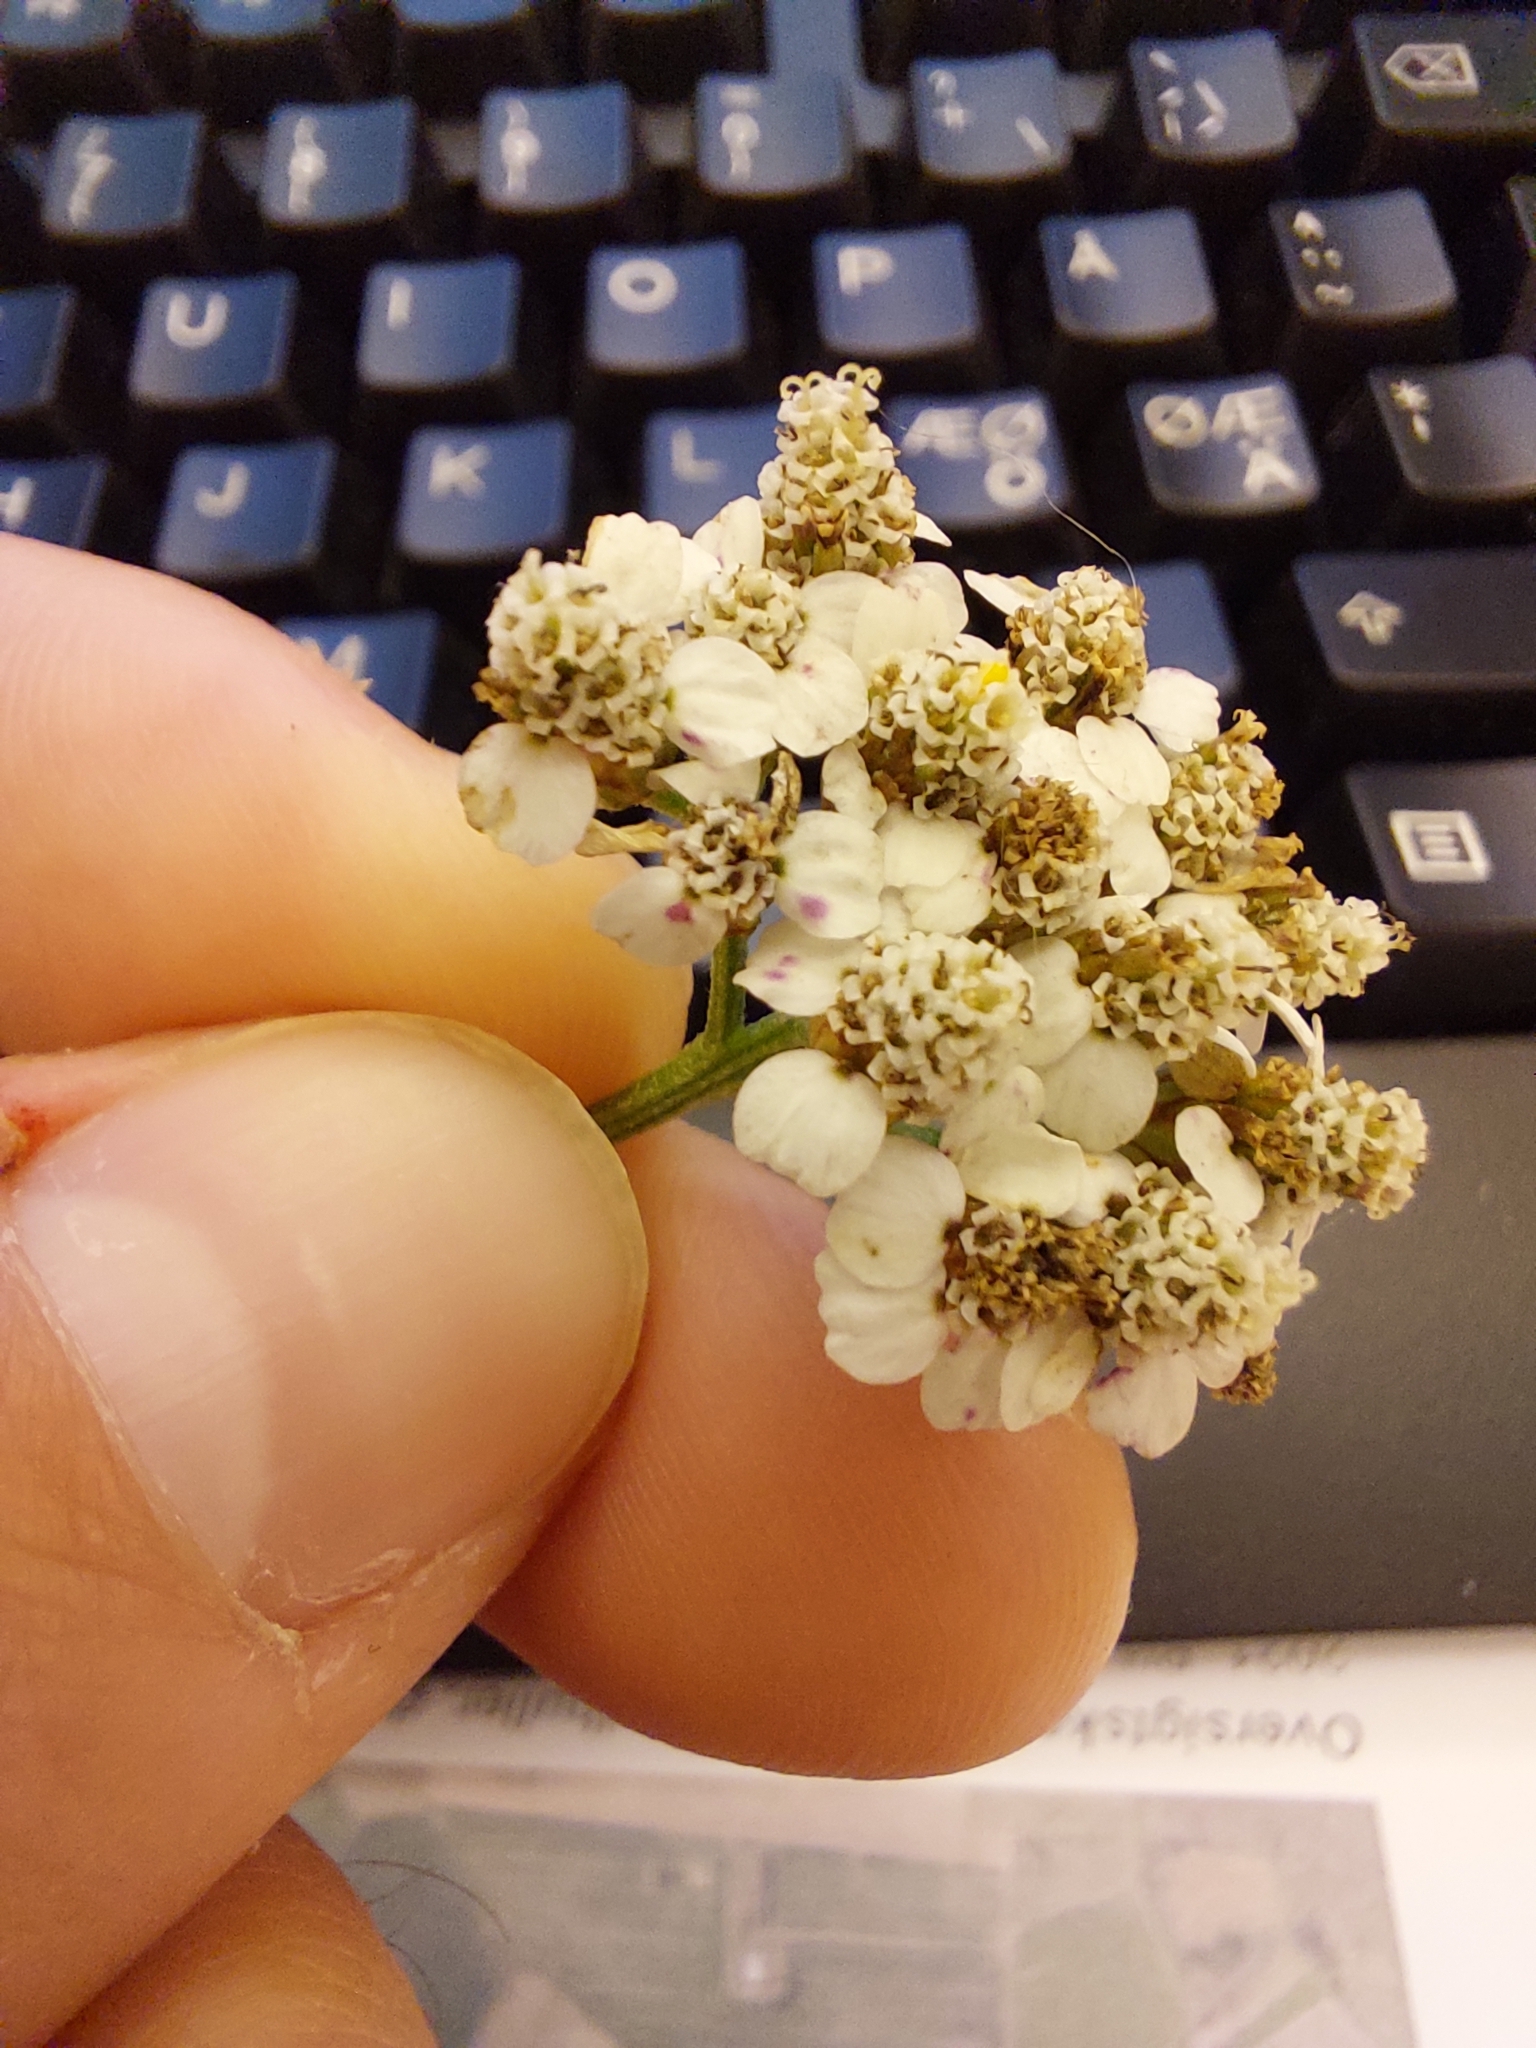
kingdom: Plantae
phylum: Tracheophyta
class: Magnoliopsida
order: Asterales
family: Asteraceae
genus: Achillea
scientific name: Achillea millefolium
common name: Yarrow
